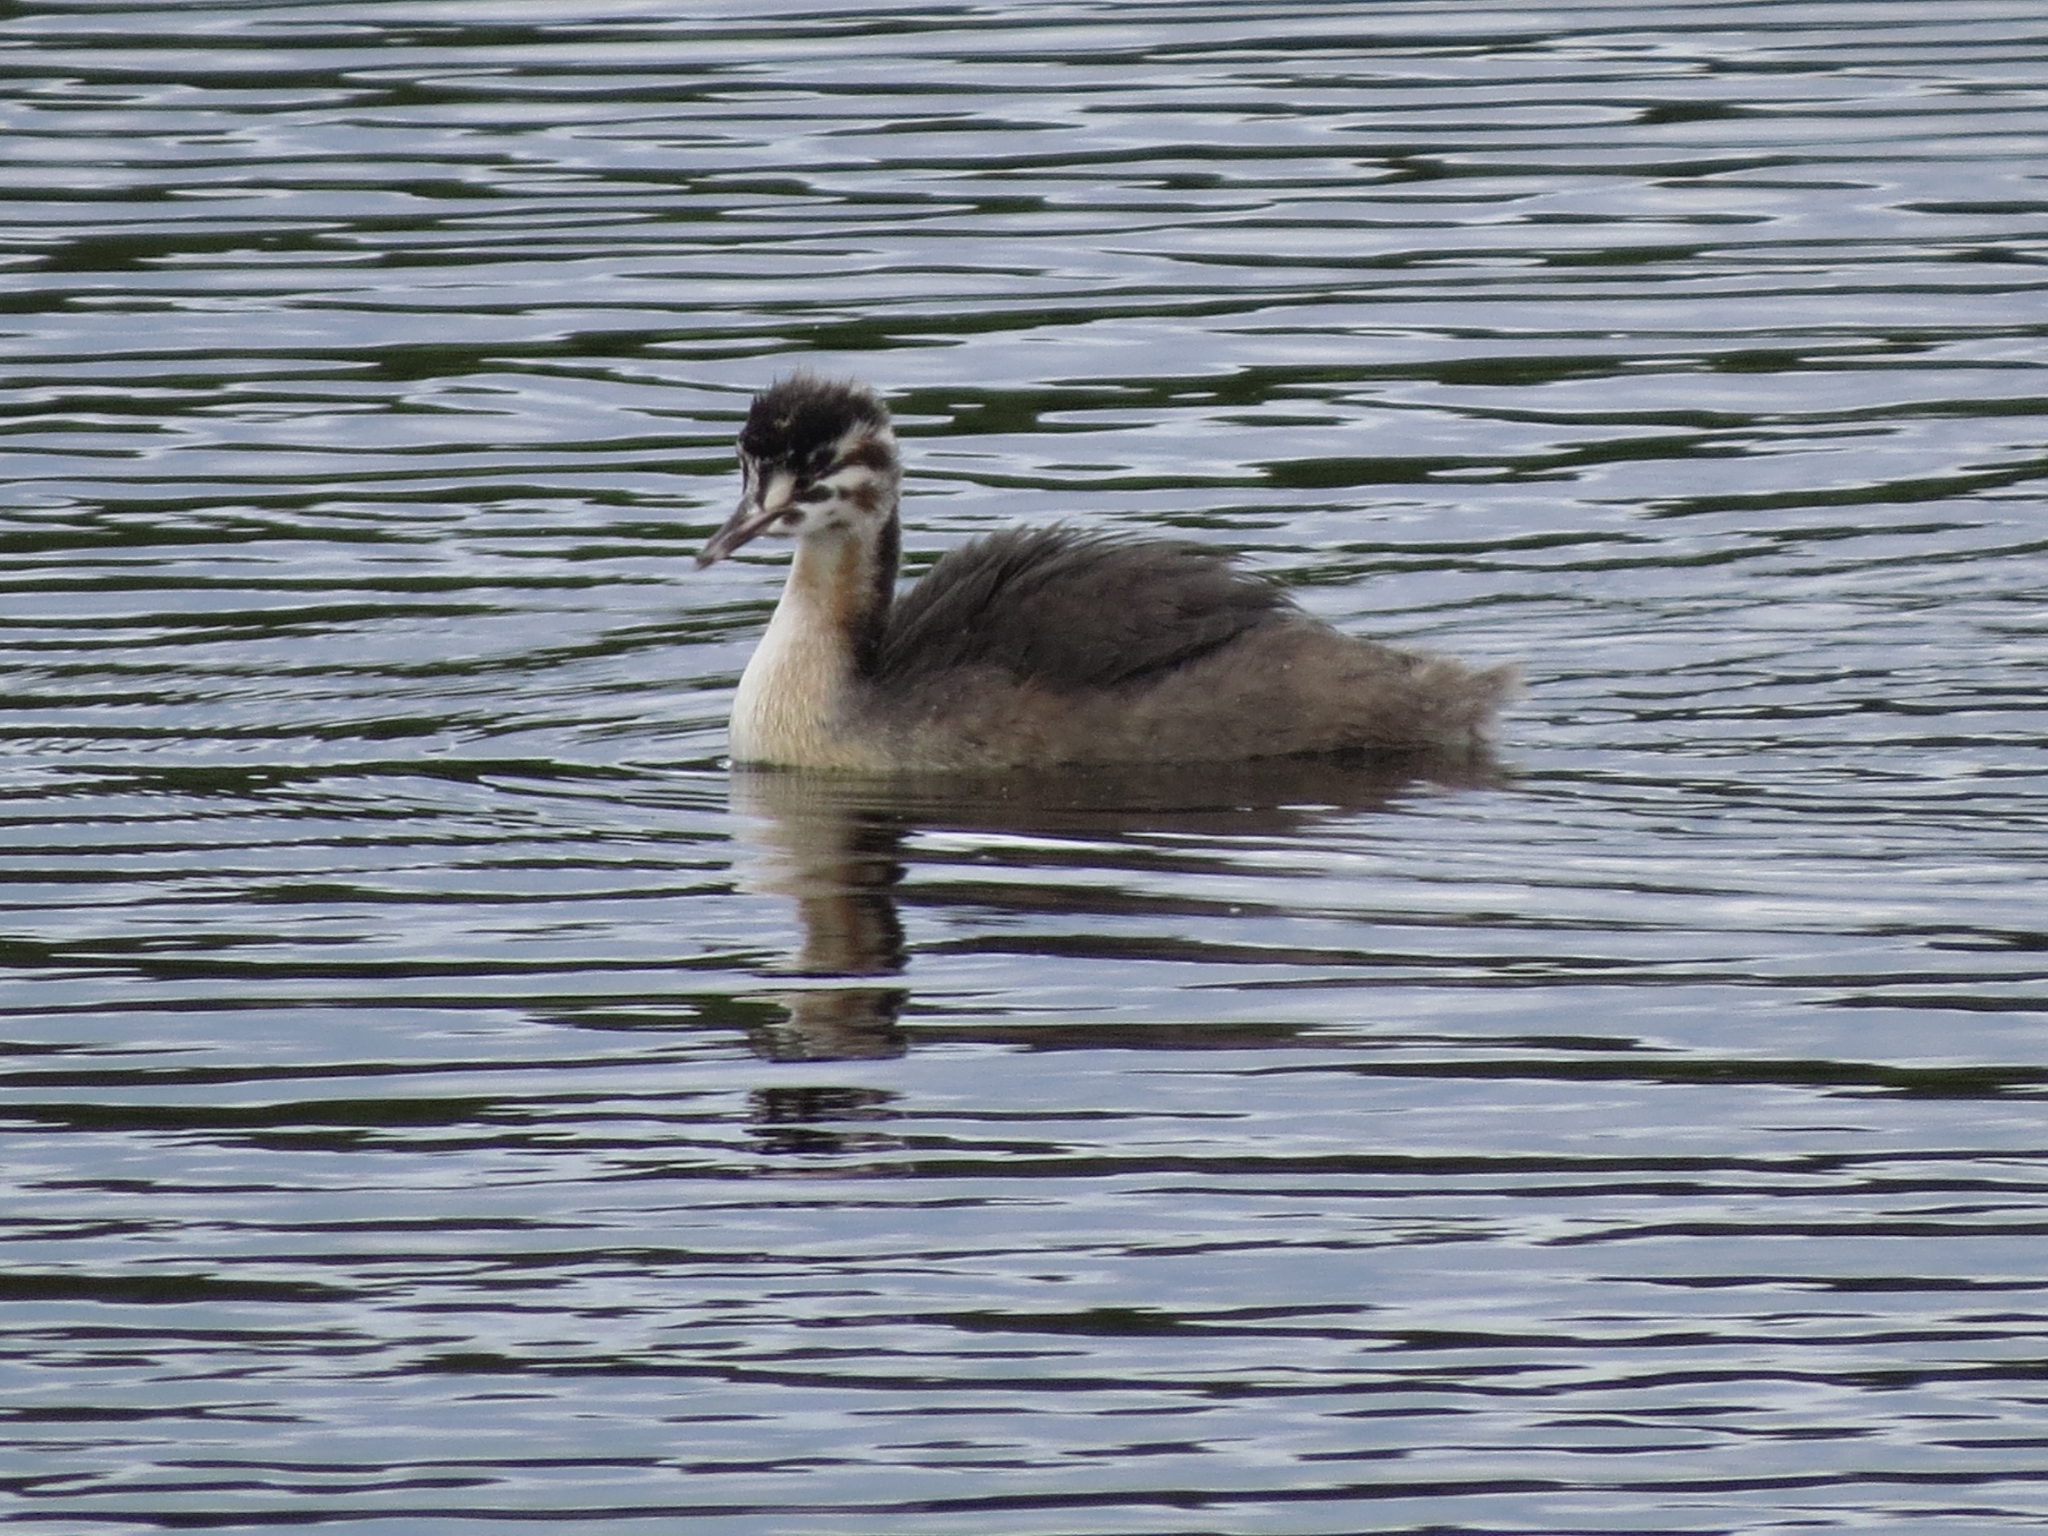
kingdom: Animalia
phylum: Chordata
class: Aves
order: Podicipediformes
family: Podicipedidae
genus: Podiceps
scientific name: Podiceps cristatus
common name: Great crested grebe
